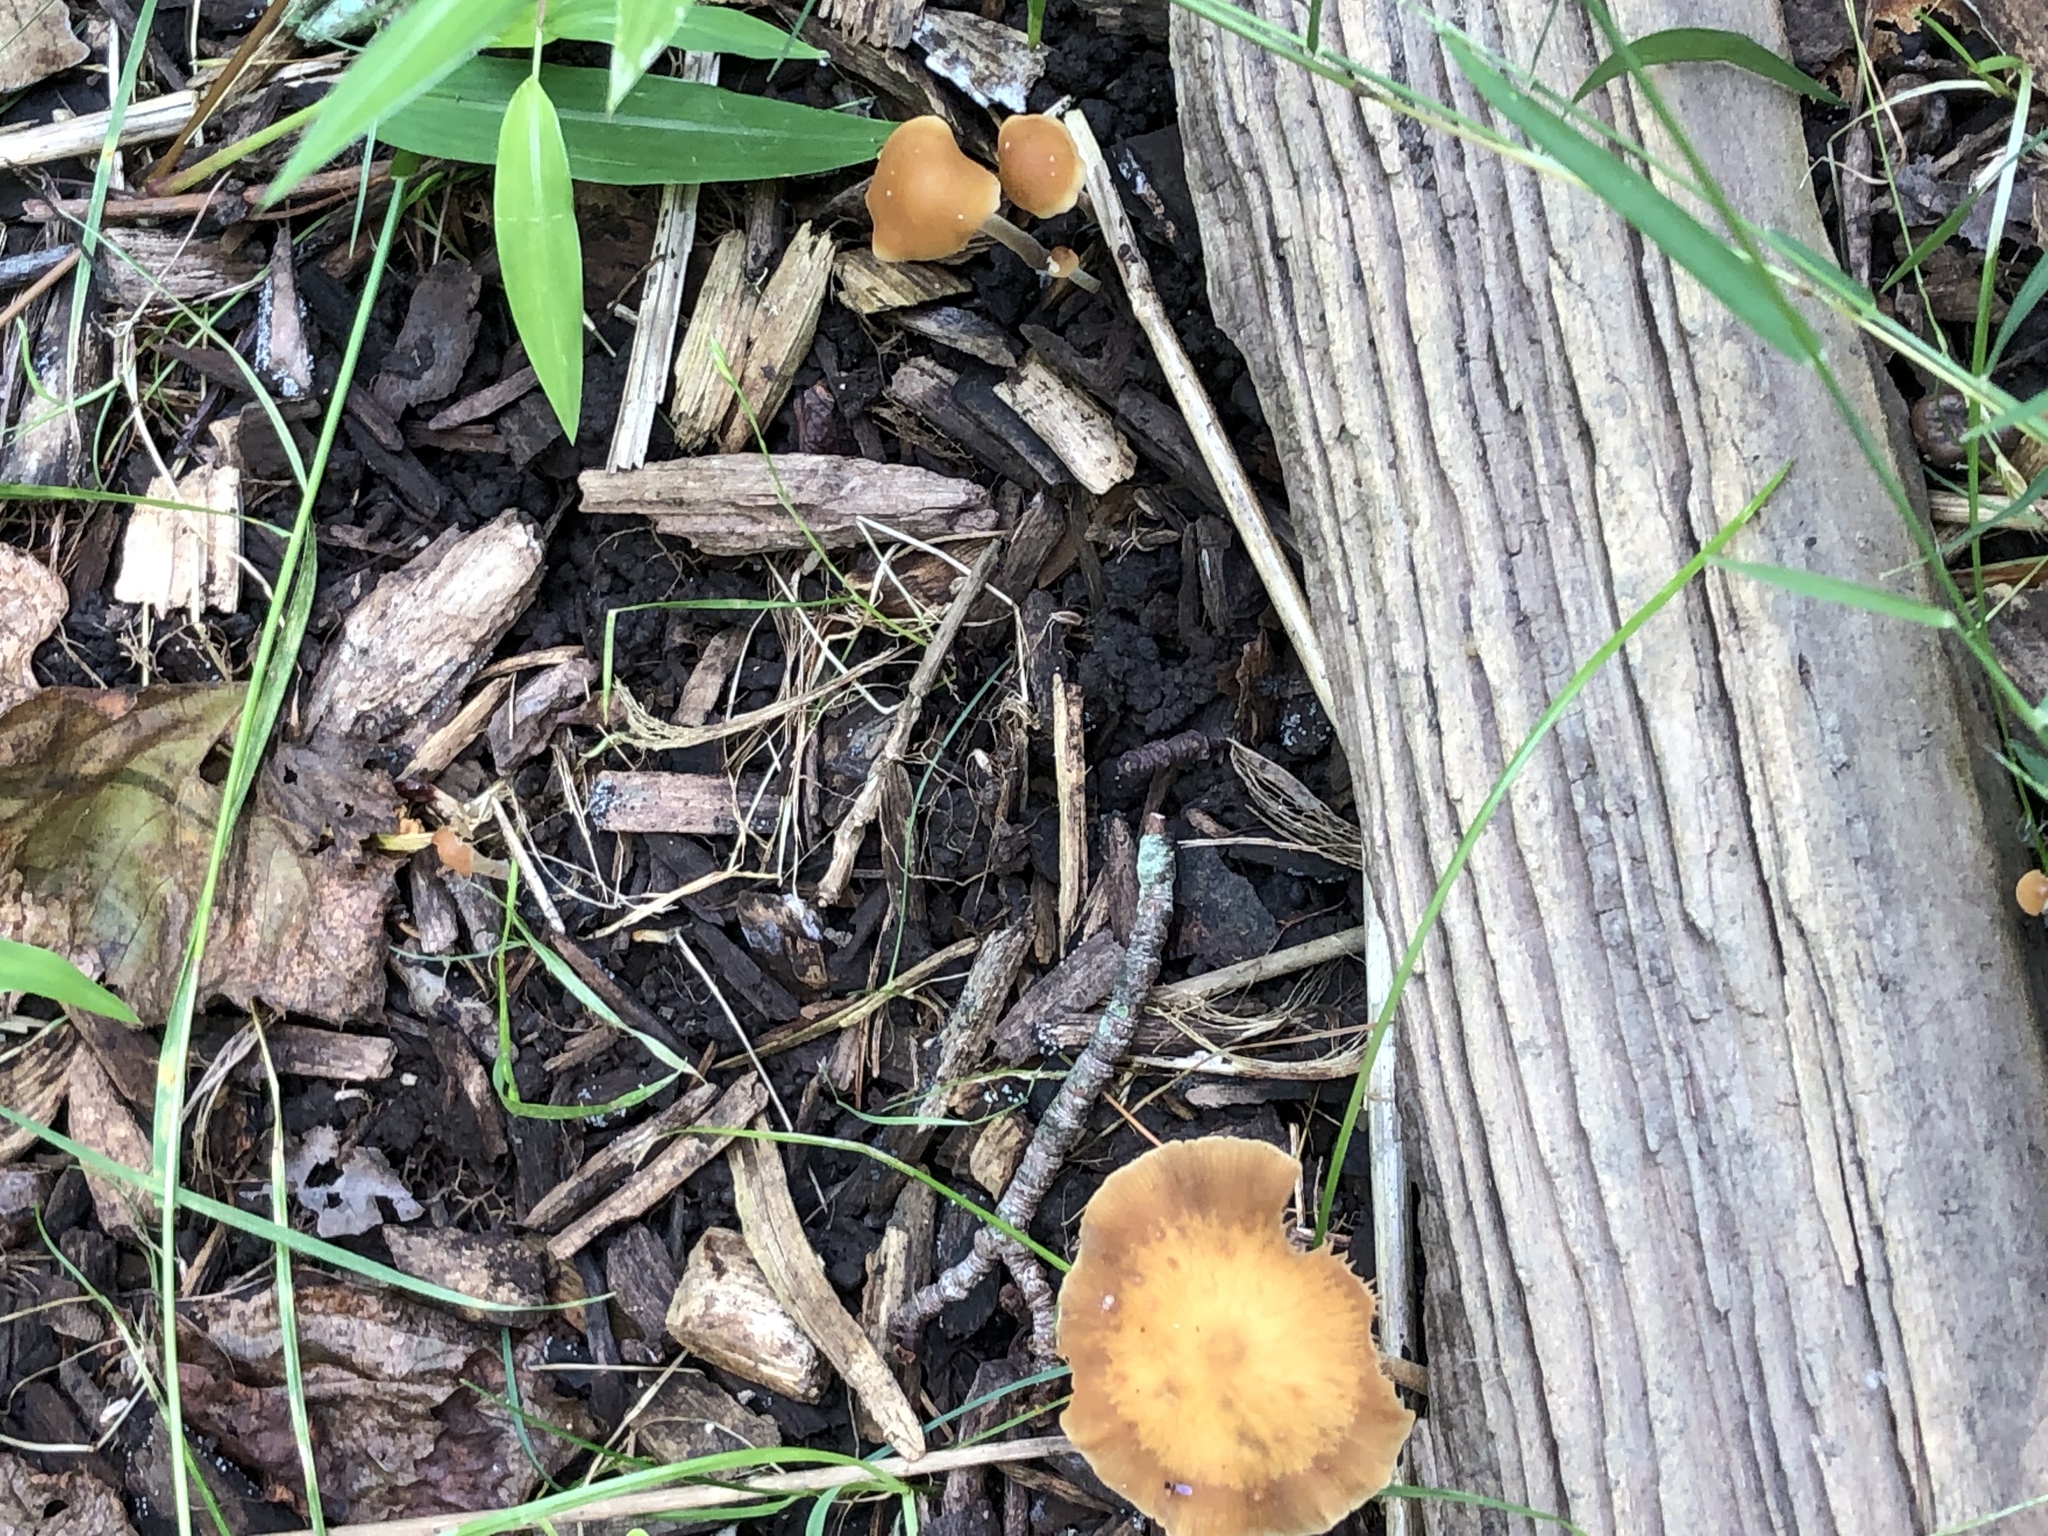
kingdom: Fungi
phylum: Basidiomycota
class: Agaricomycetes
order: Agaricales
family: Strophariaceae
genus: Agrocybe
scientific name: Agrocybe arvalis
